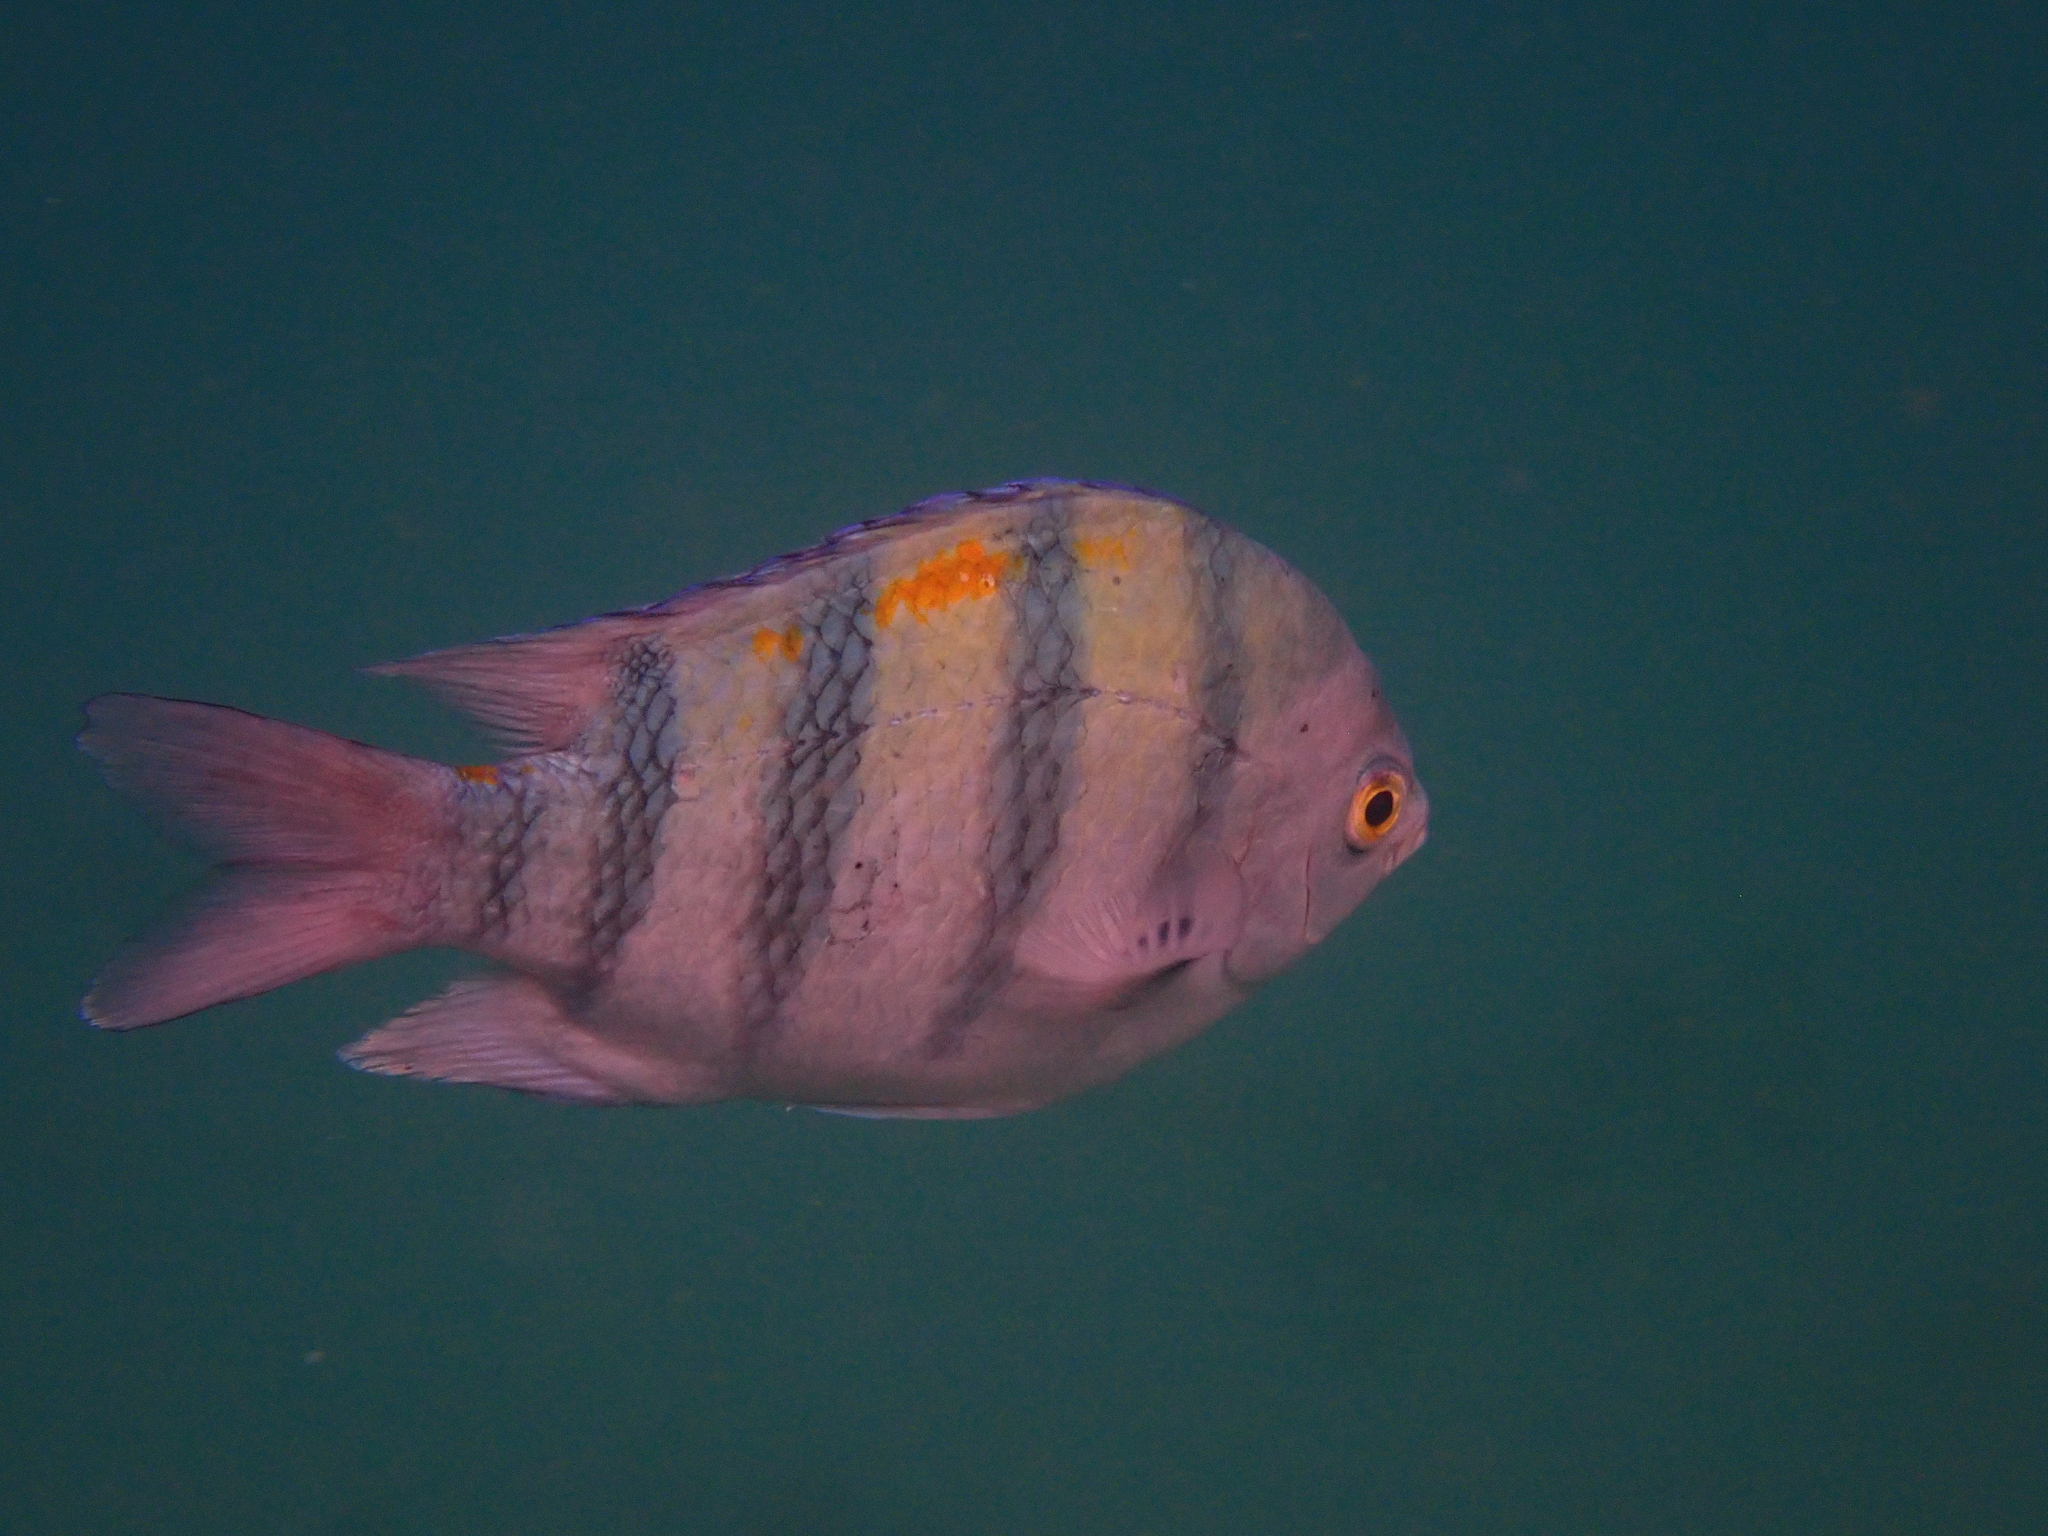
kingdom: Animalia
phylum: Chordata
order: Perciformes
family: Pomacentridae
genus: Abudefduf
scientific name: Abudefduf vaigiensis
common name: Indo-pacific sergeant
